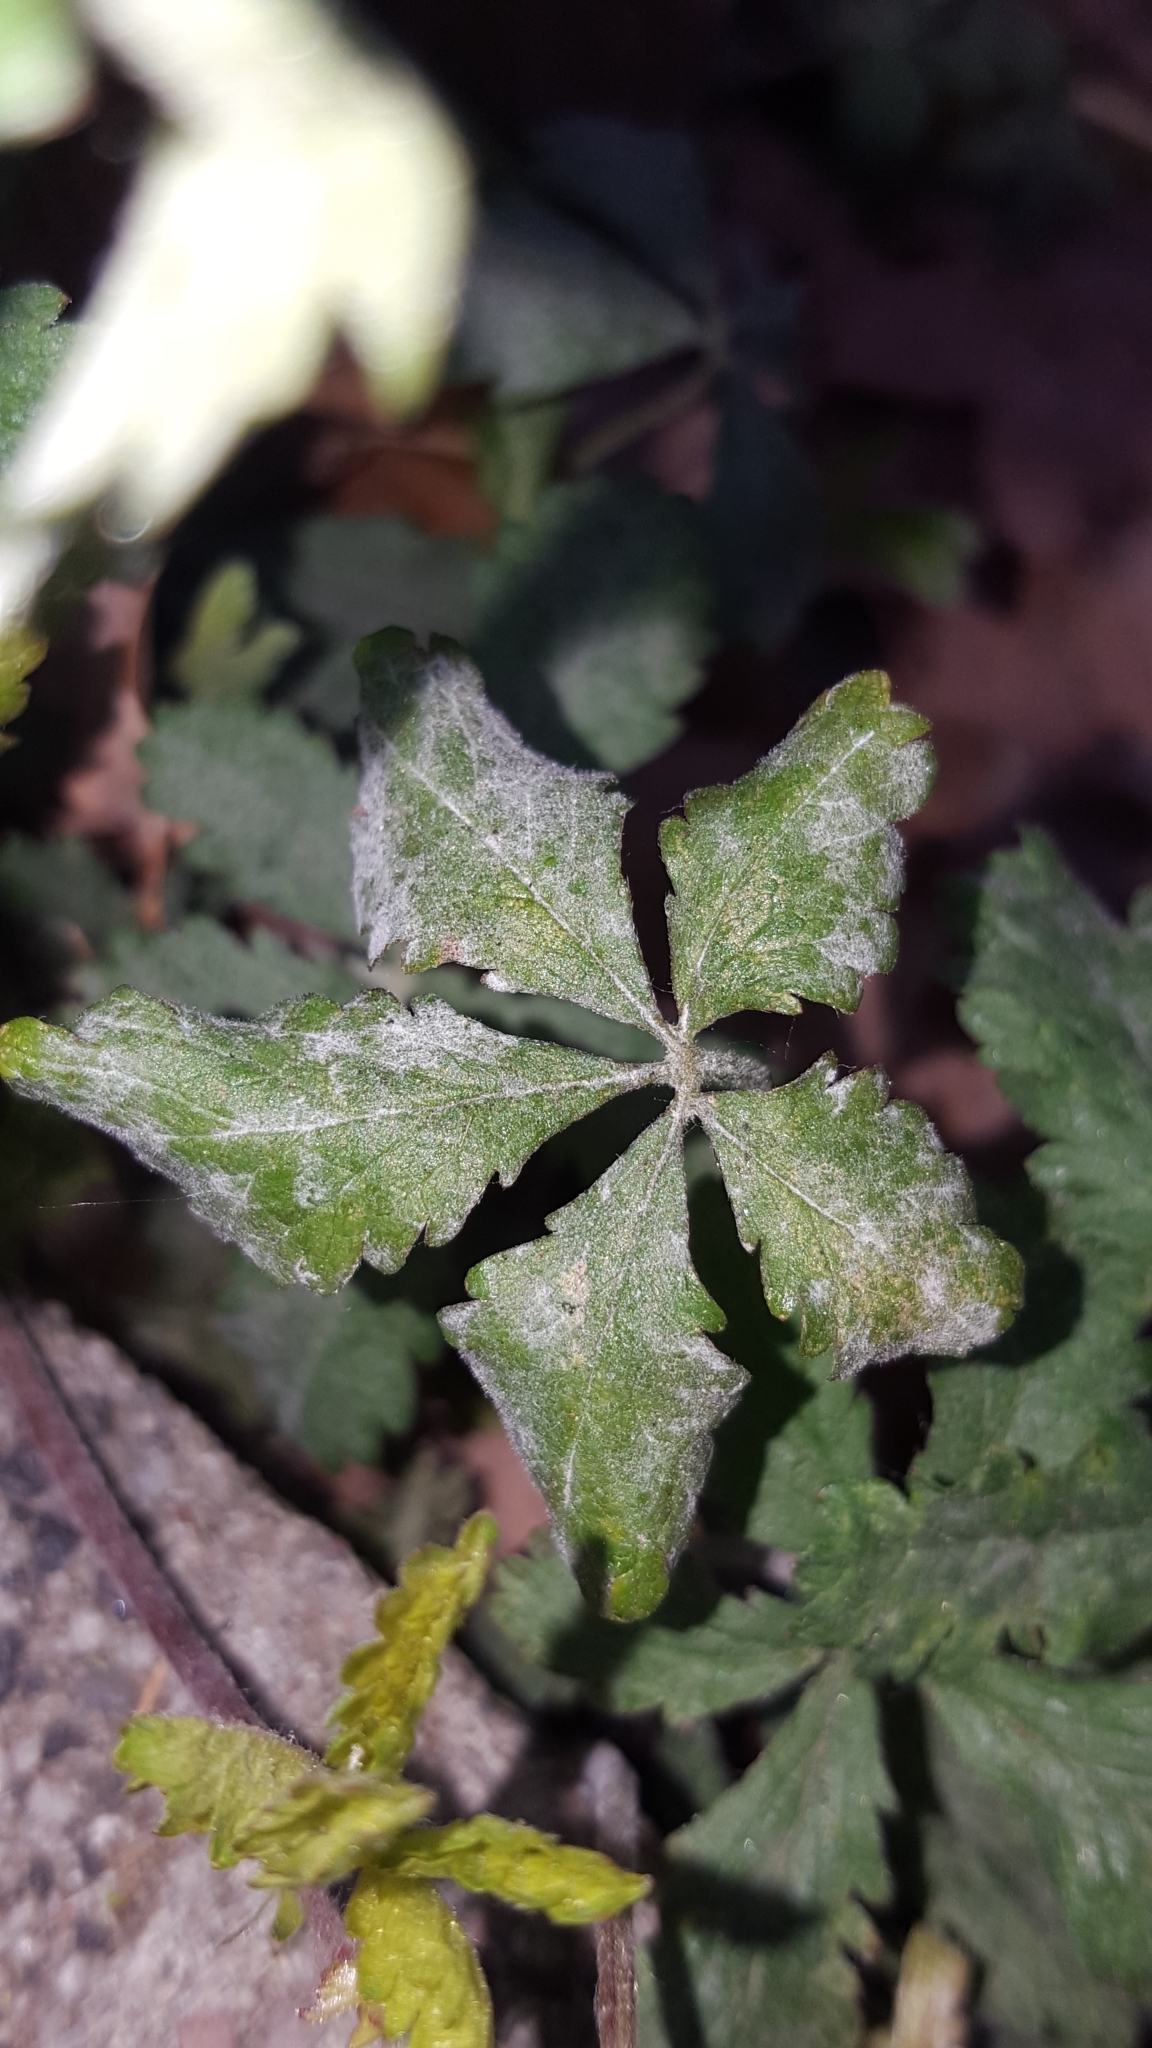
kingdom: Fungi
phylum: Ascomycota
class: Leotiomycetes
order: Helotiales
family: Erysiphaceae
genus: Podosphaera
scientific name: Podosphaera aphanis
